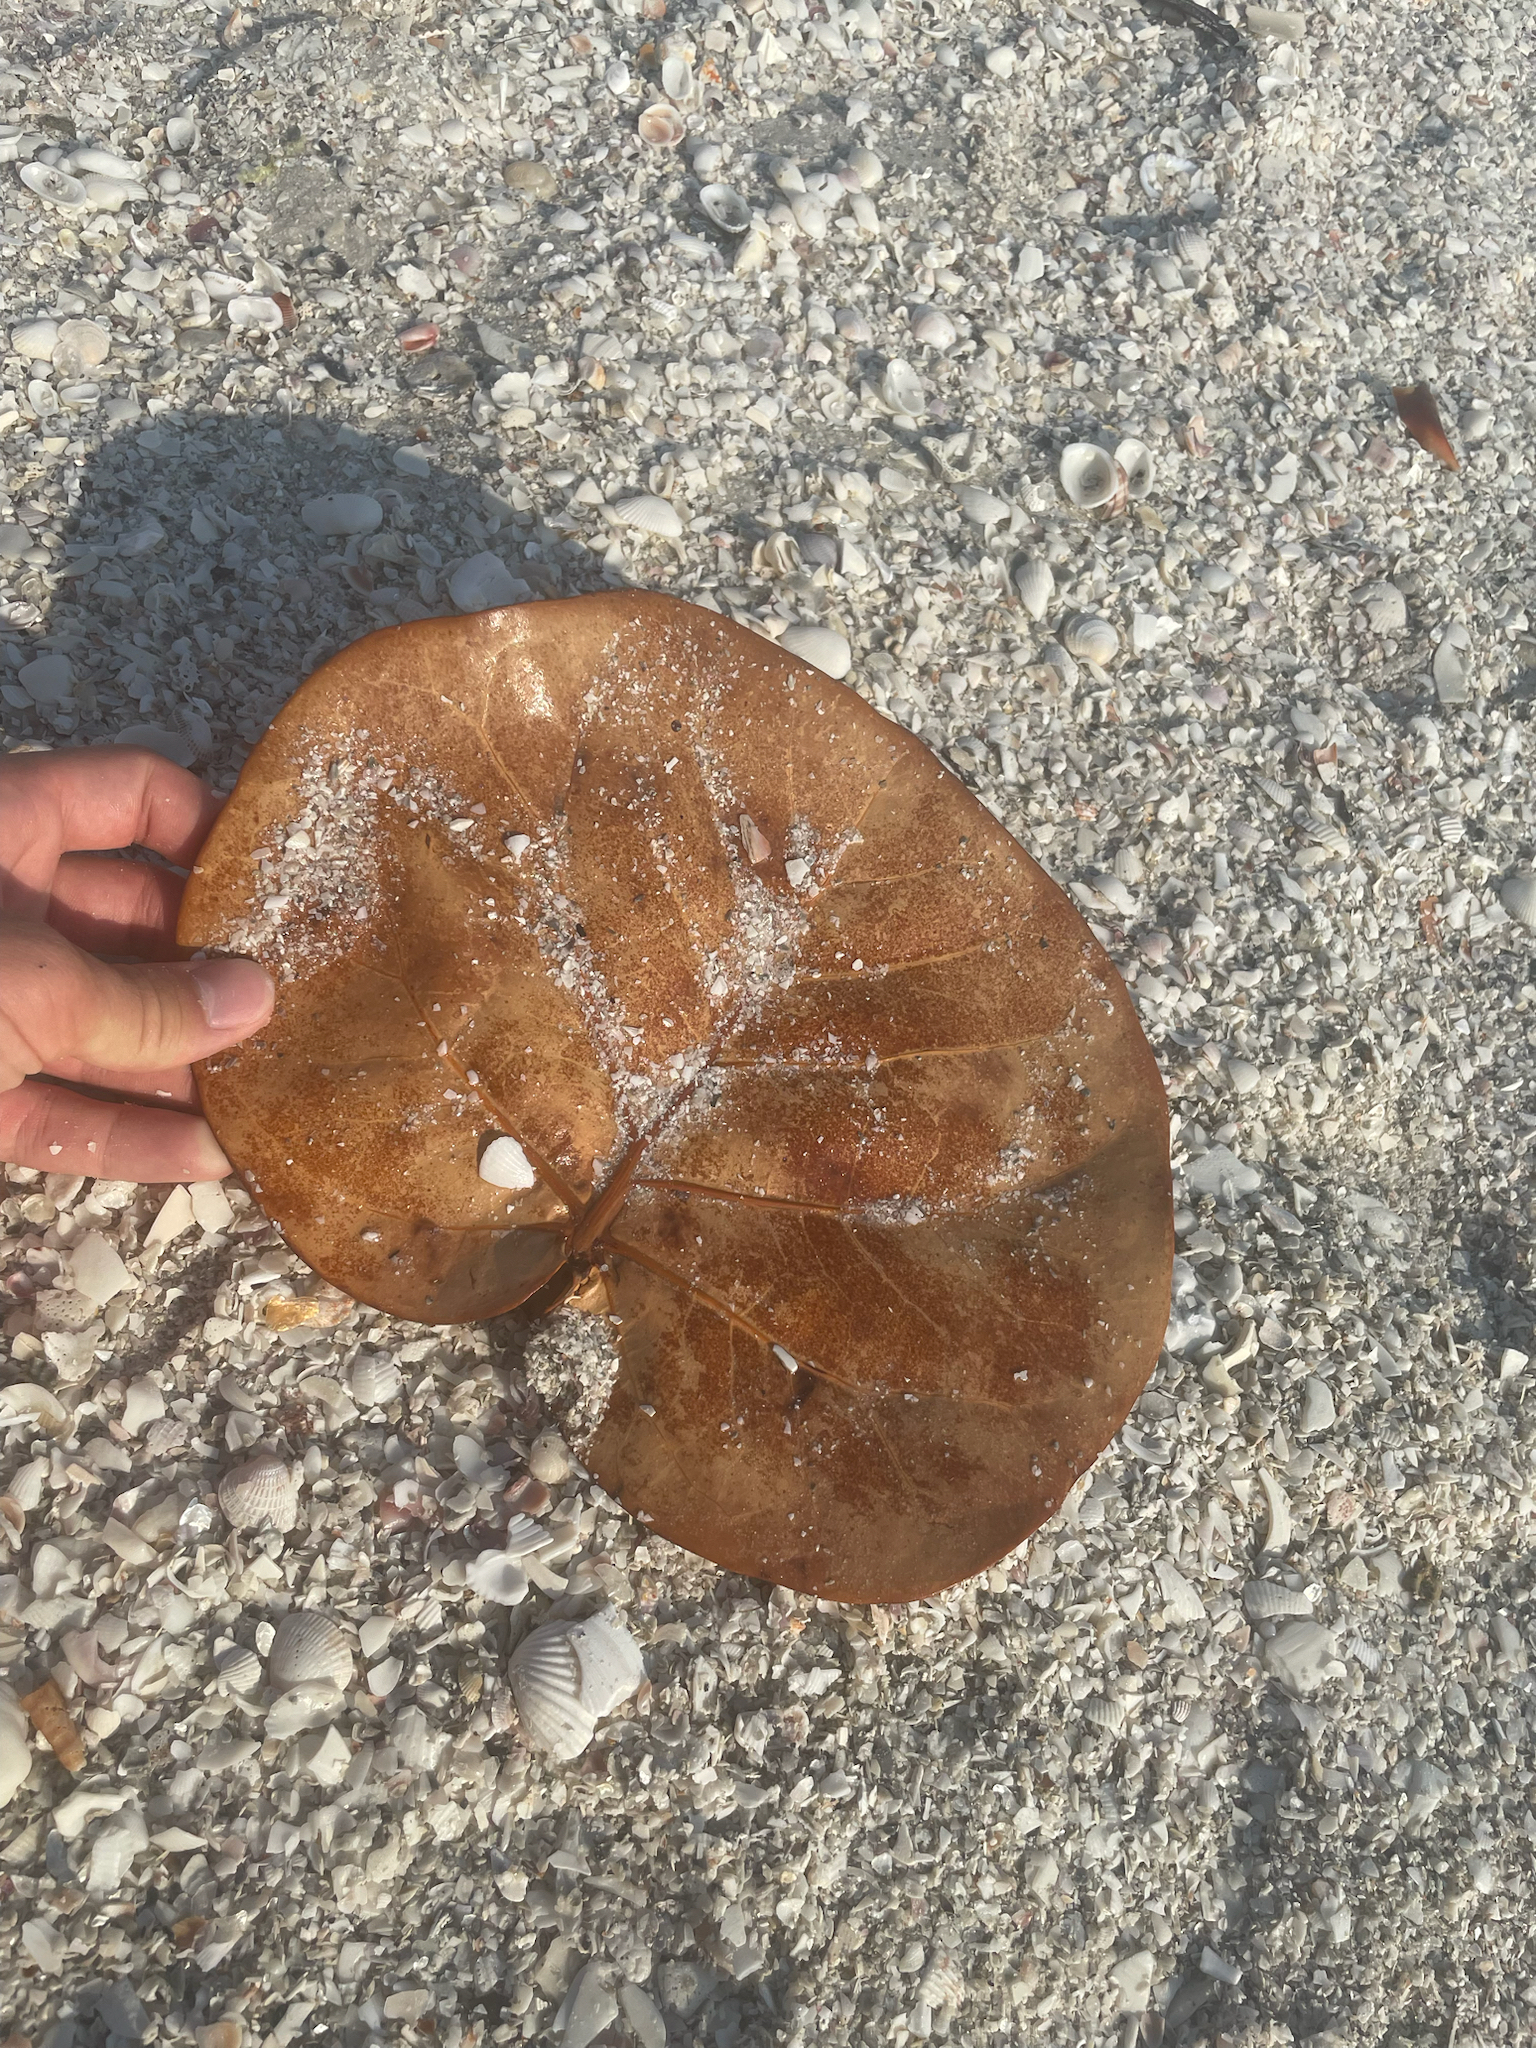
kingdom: Plantae
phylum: Tracheophyta
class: Magnoliopsida
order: Caryophyllales
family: Polygonaceae
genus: Coccoloba
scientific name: Coccoloba uvifera
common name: Seagrape
